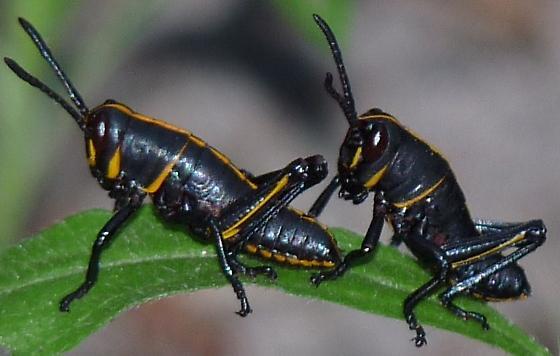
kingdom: Animalia
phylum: Arthropoda
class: Insecta
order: Orthoptera
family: Romaleidae
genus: Romalea
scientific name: Romalea microptera
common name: Eastern lubber grasshopper
